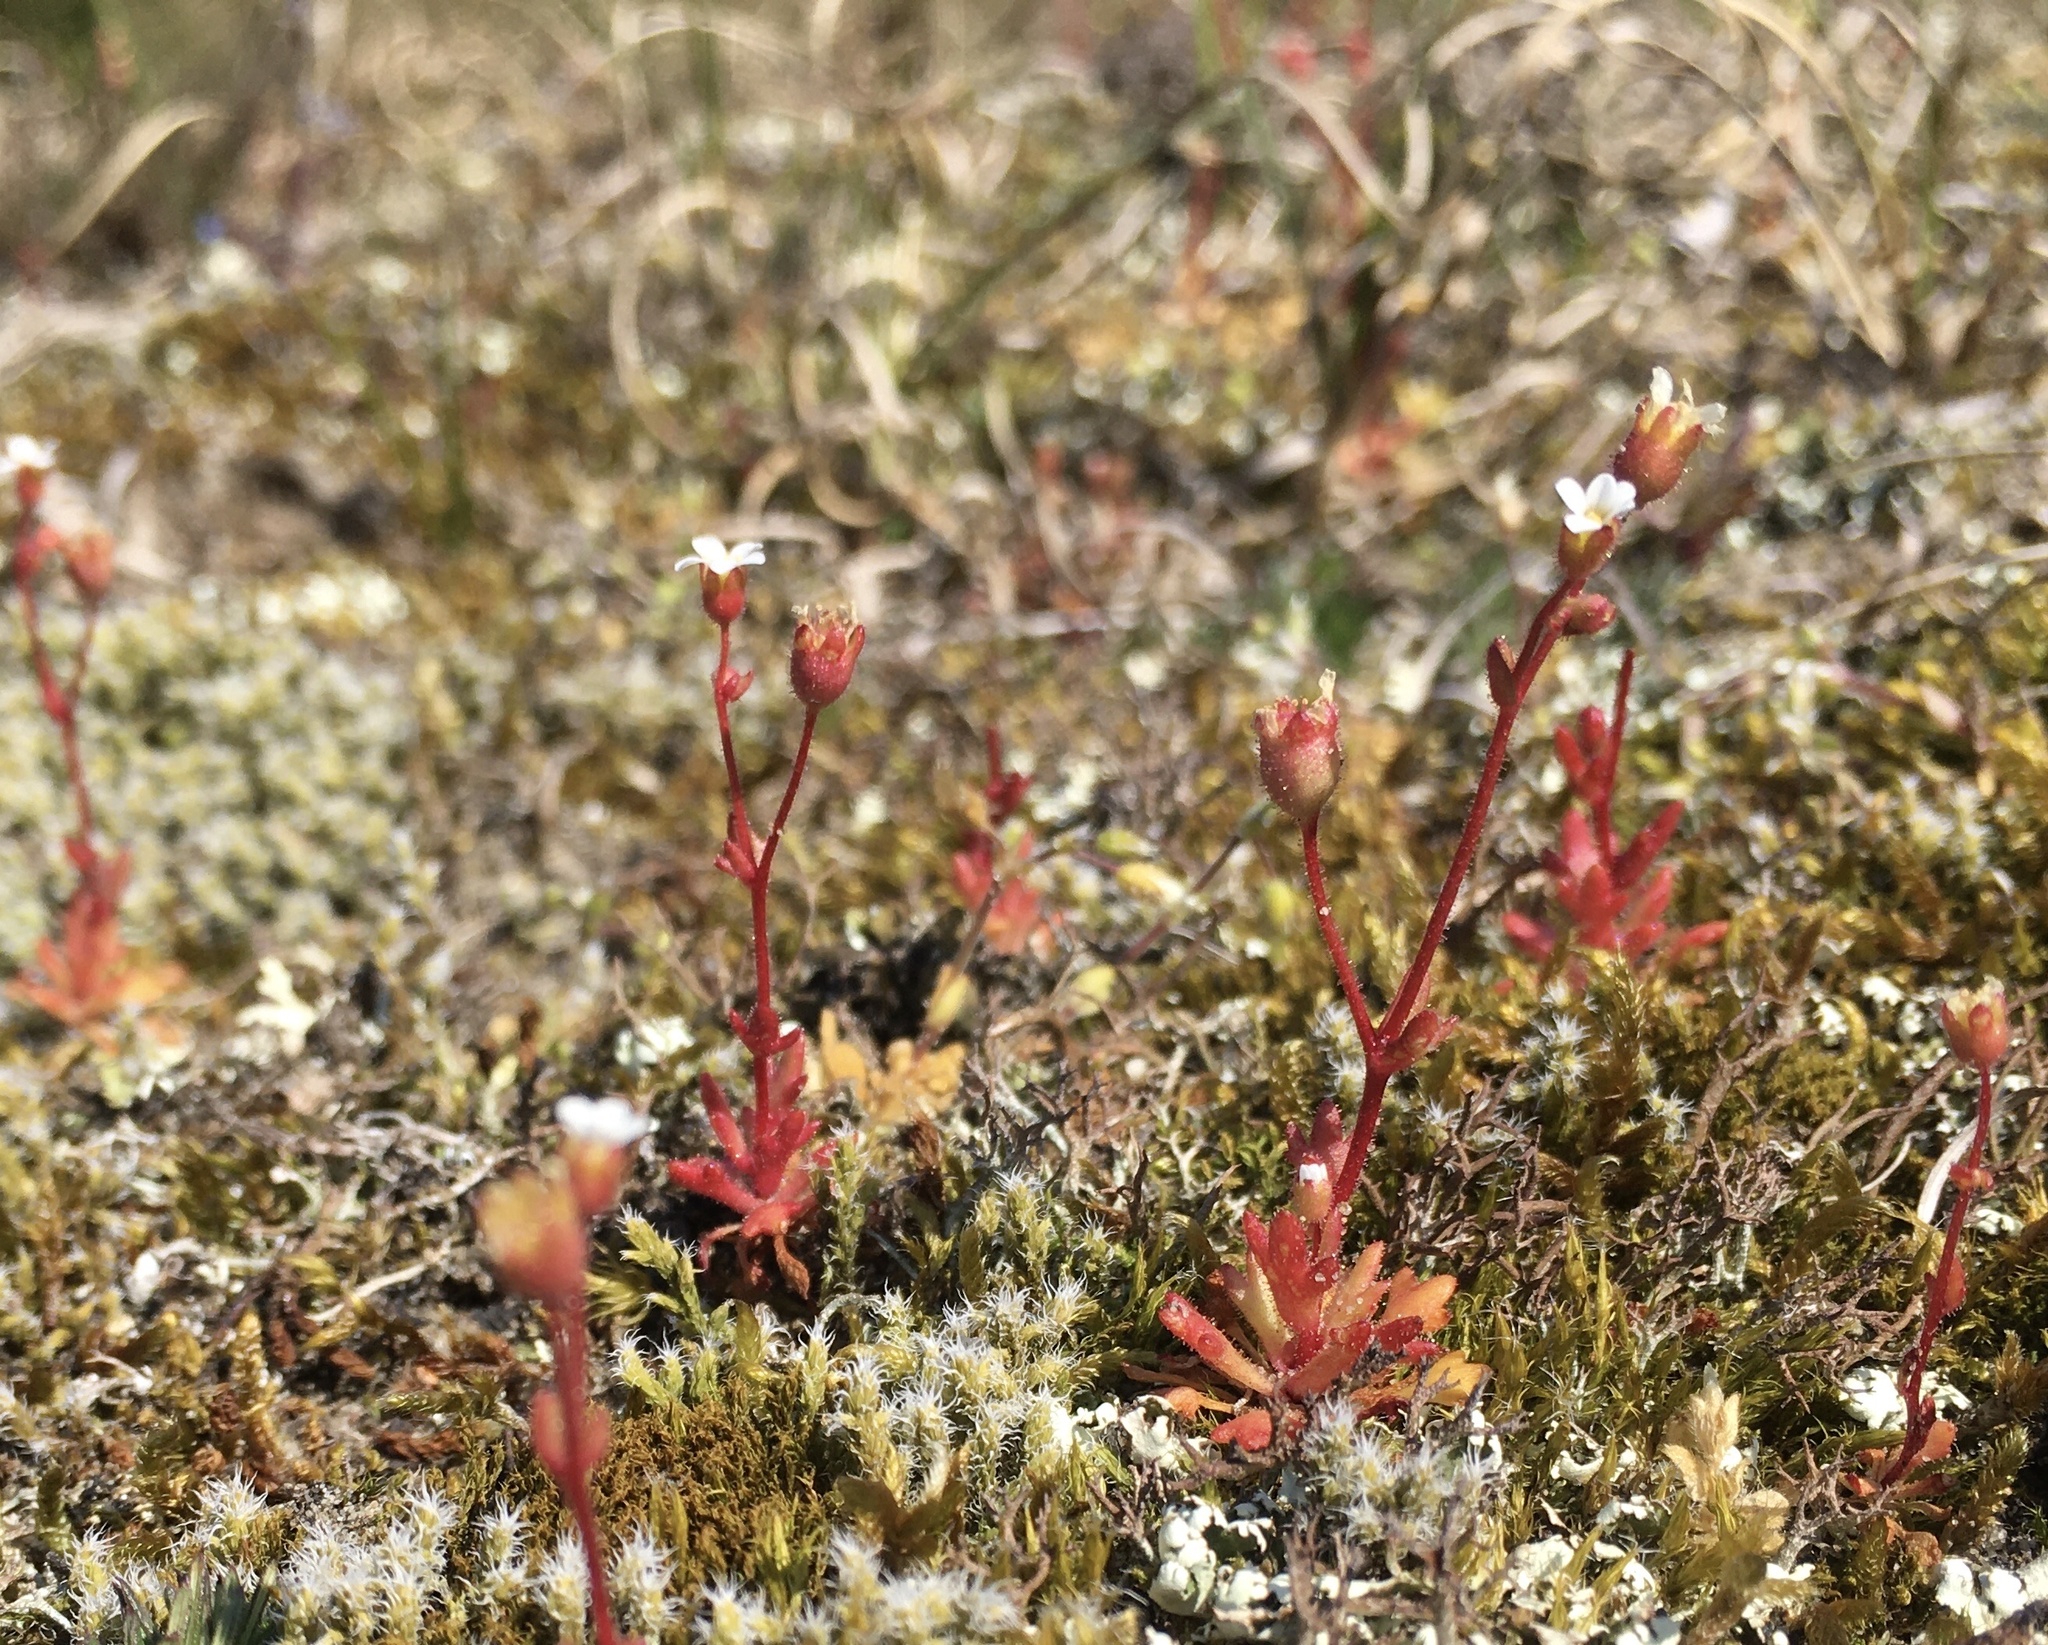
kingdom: Plantae
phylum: Tracheophyta
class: Magnoliopsida
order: Saxifragales
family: Saxifragaceae
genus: Saxifraga
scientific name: Saxifraga tridactylites
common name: Rue-leaved saxifrage
